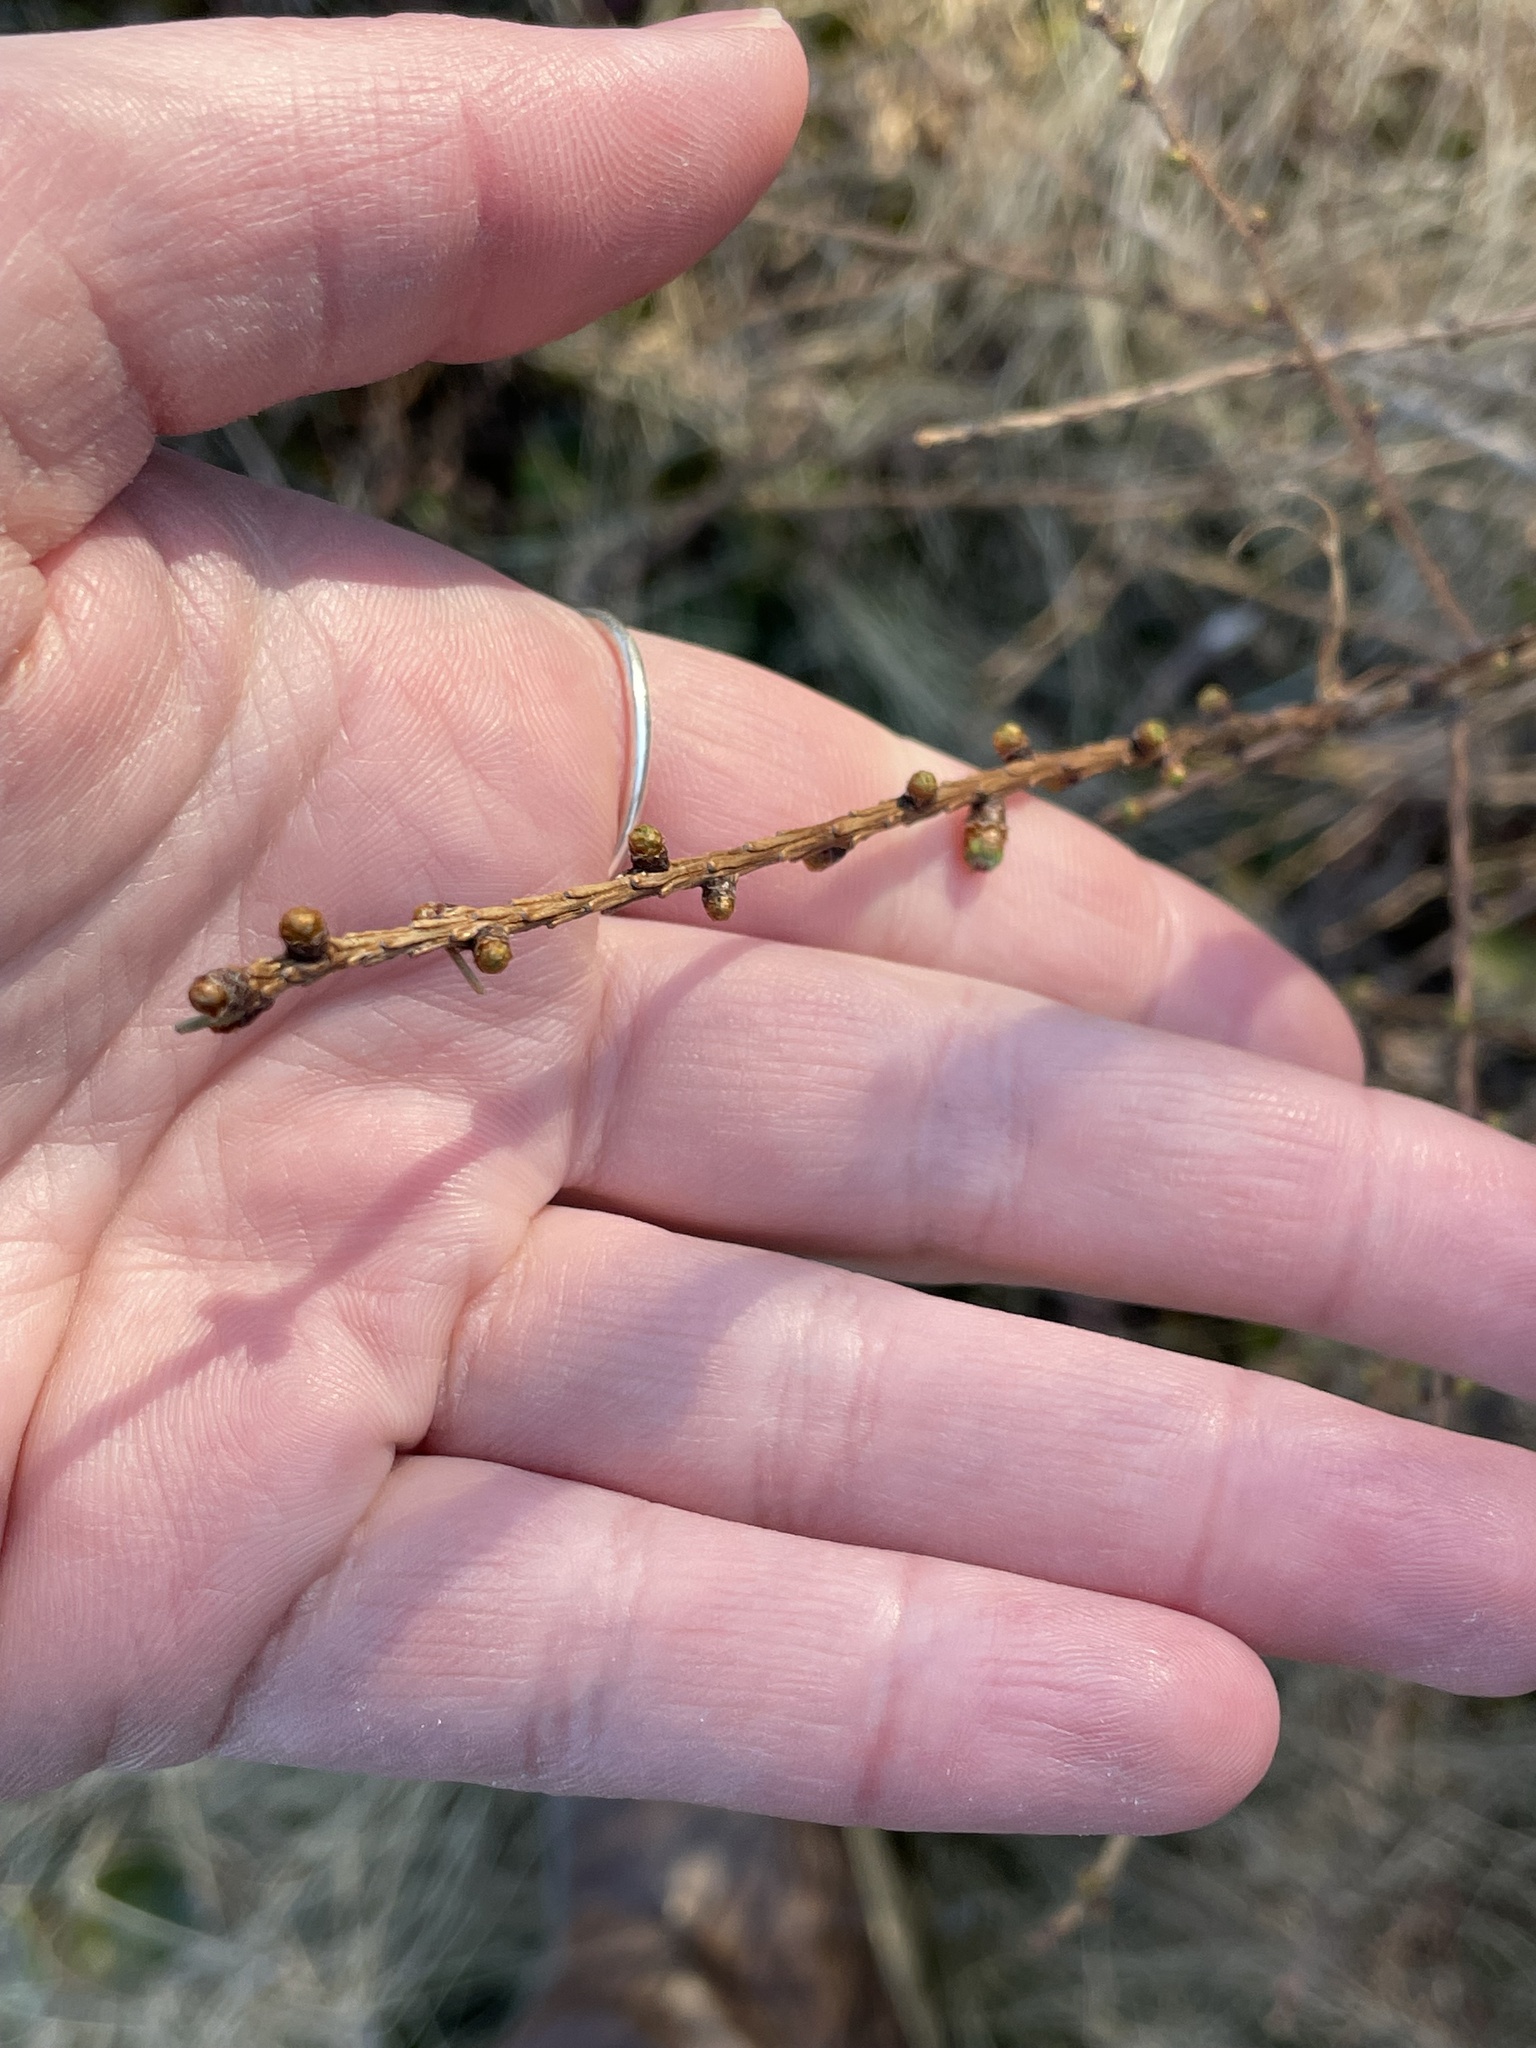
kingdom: Plantae
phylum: Tracheophyta
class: Pinopsida
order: Pinales
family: Pinaceae
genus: Larix
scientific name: Larix laricina
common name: American larch
